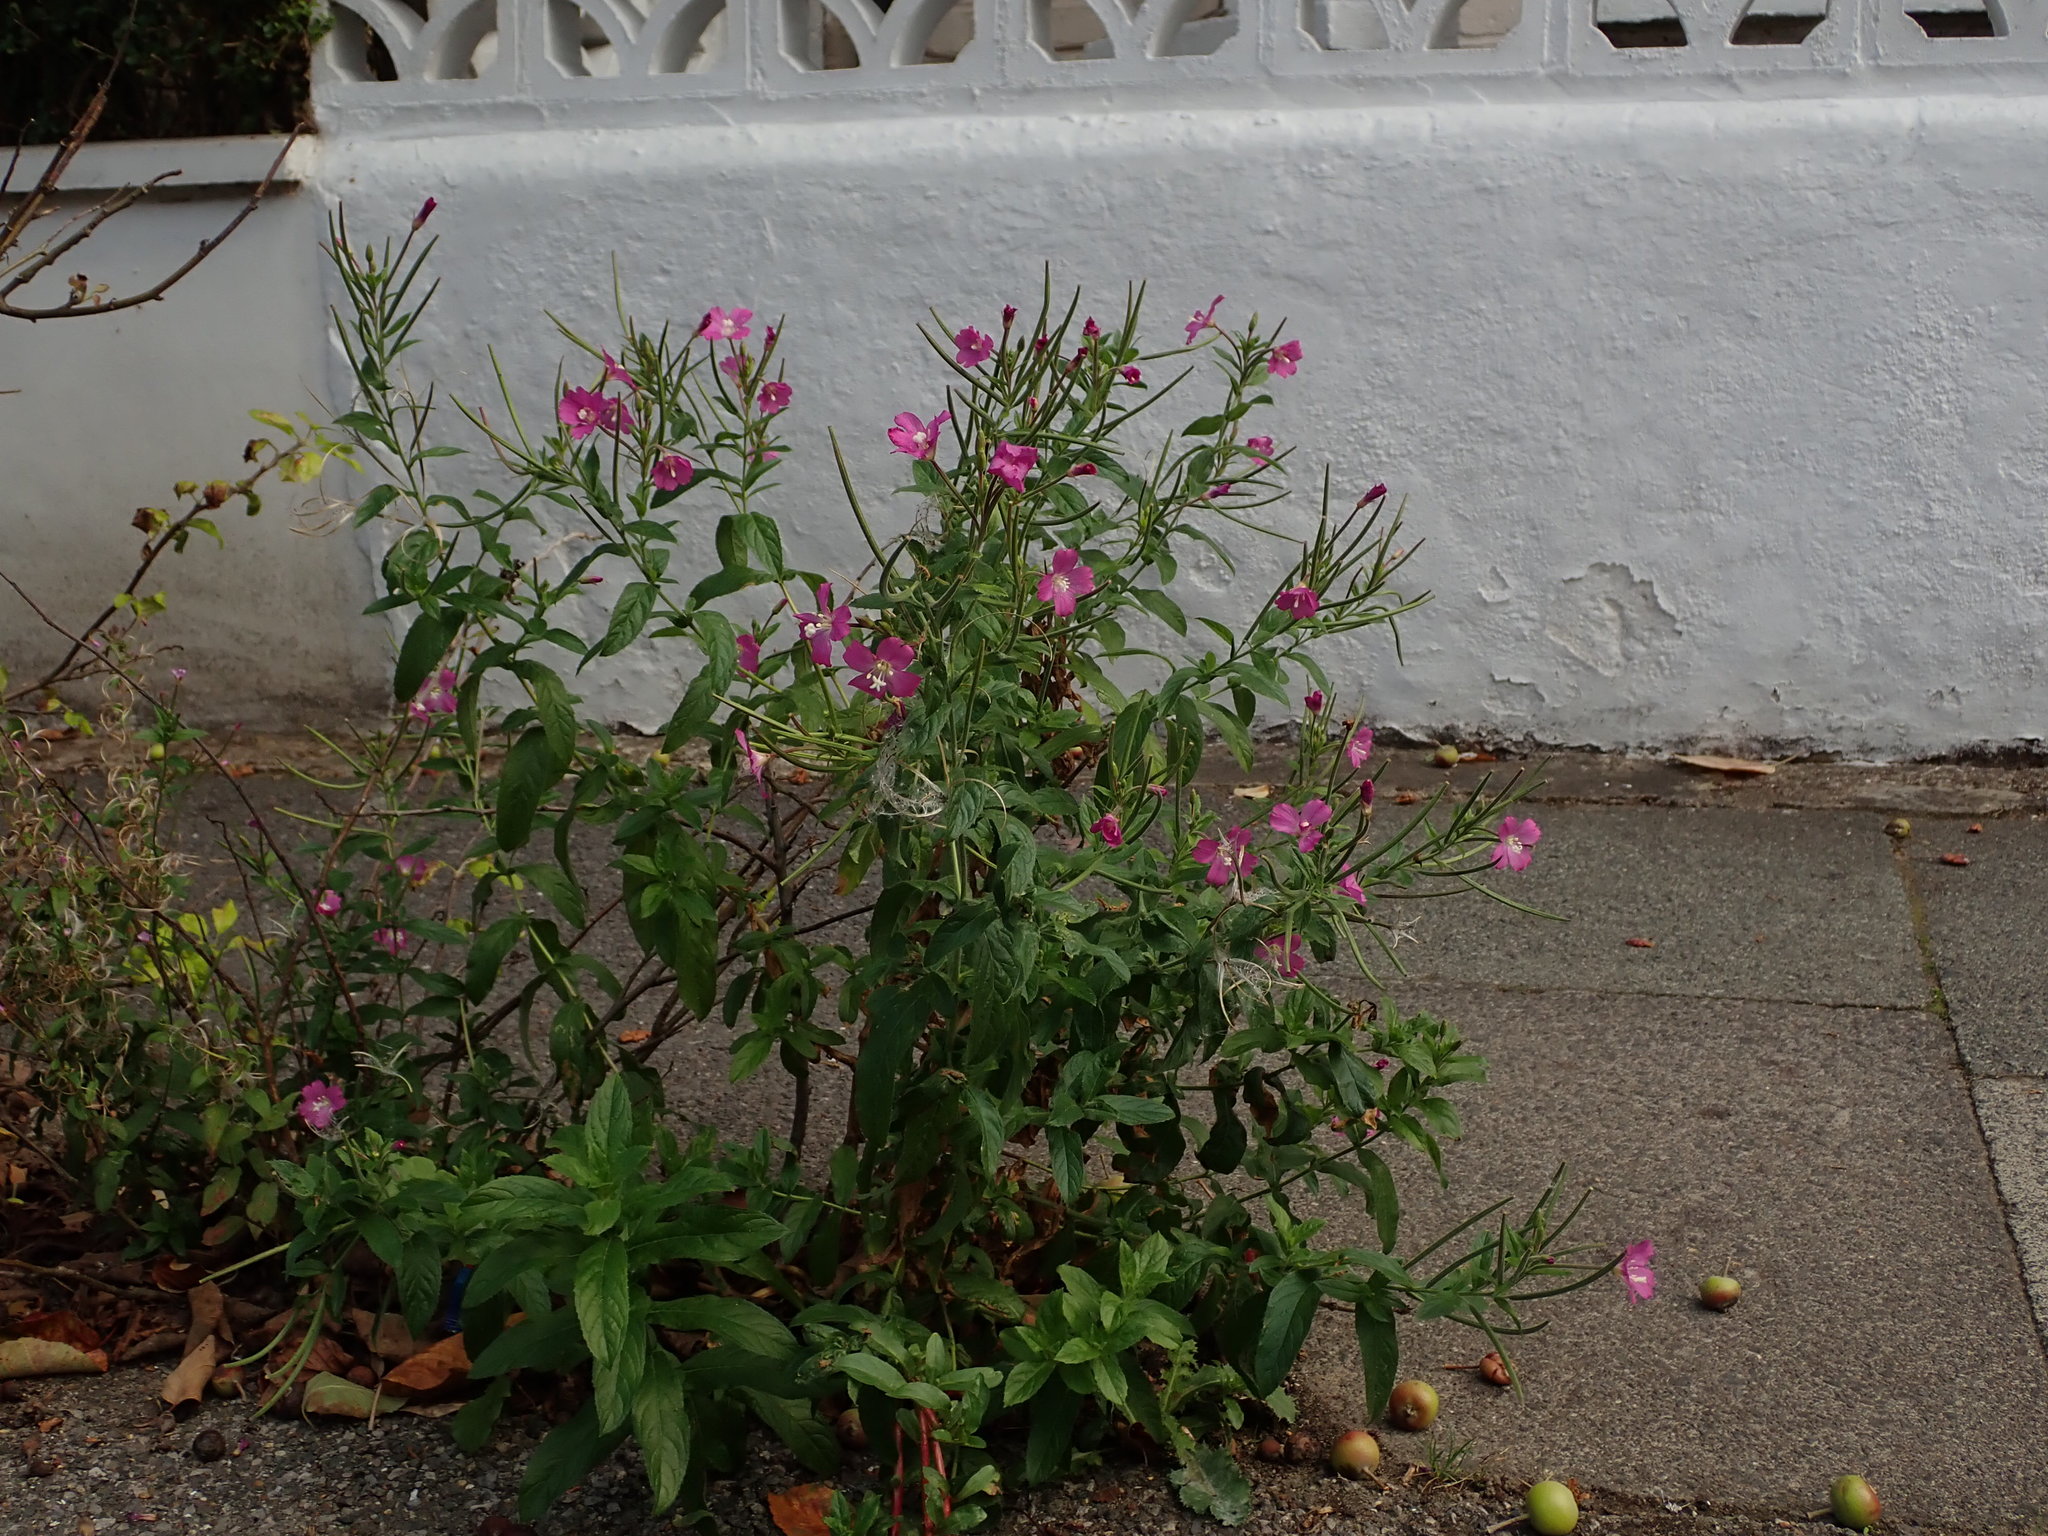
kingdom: Plantae
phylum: Tracheophyta
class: Magnoliopsida
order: Myrtales
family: Onagraceae
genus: Epilobium
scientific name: Epilobium hirsutum
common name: Great willowherb
